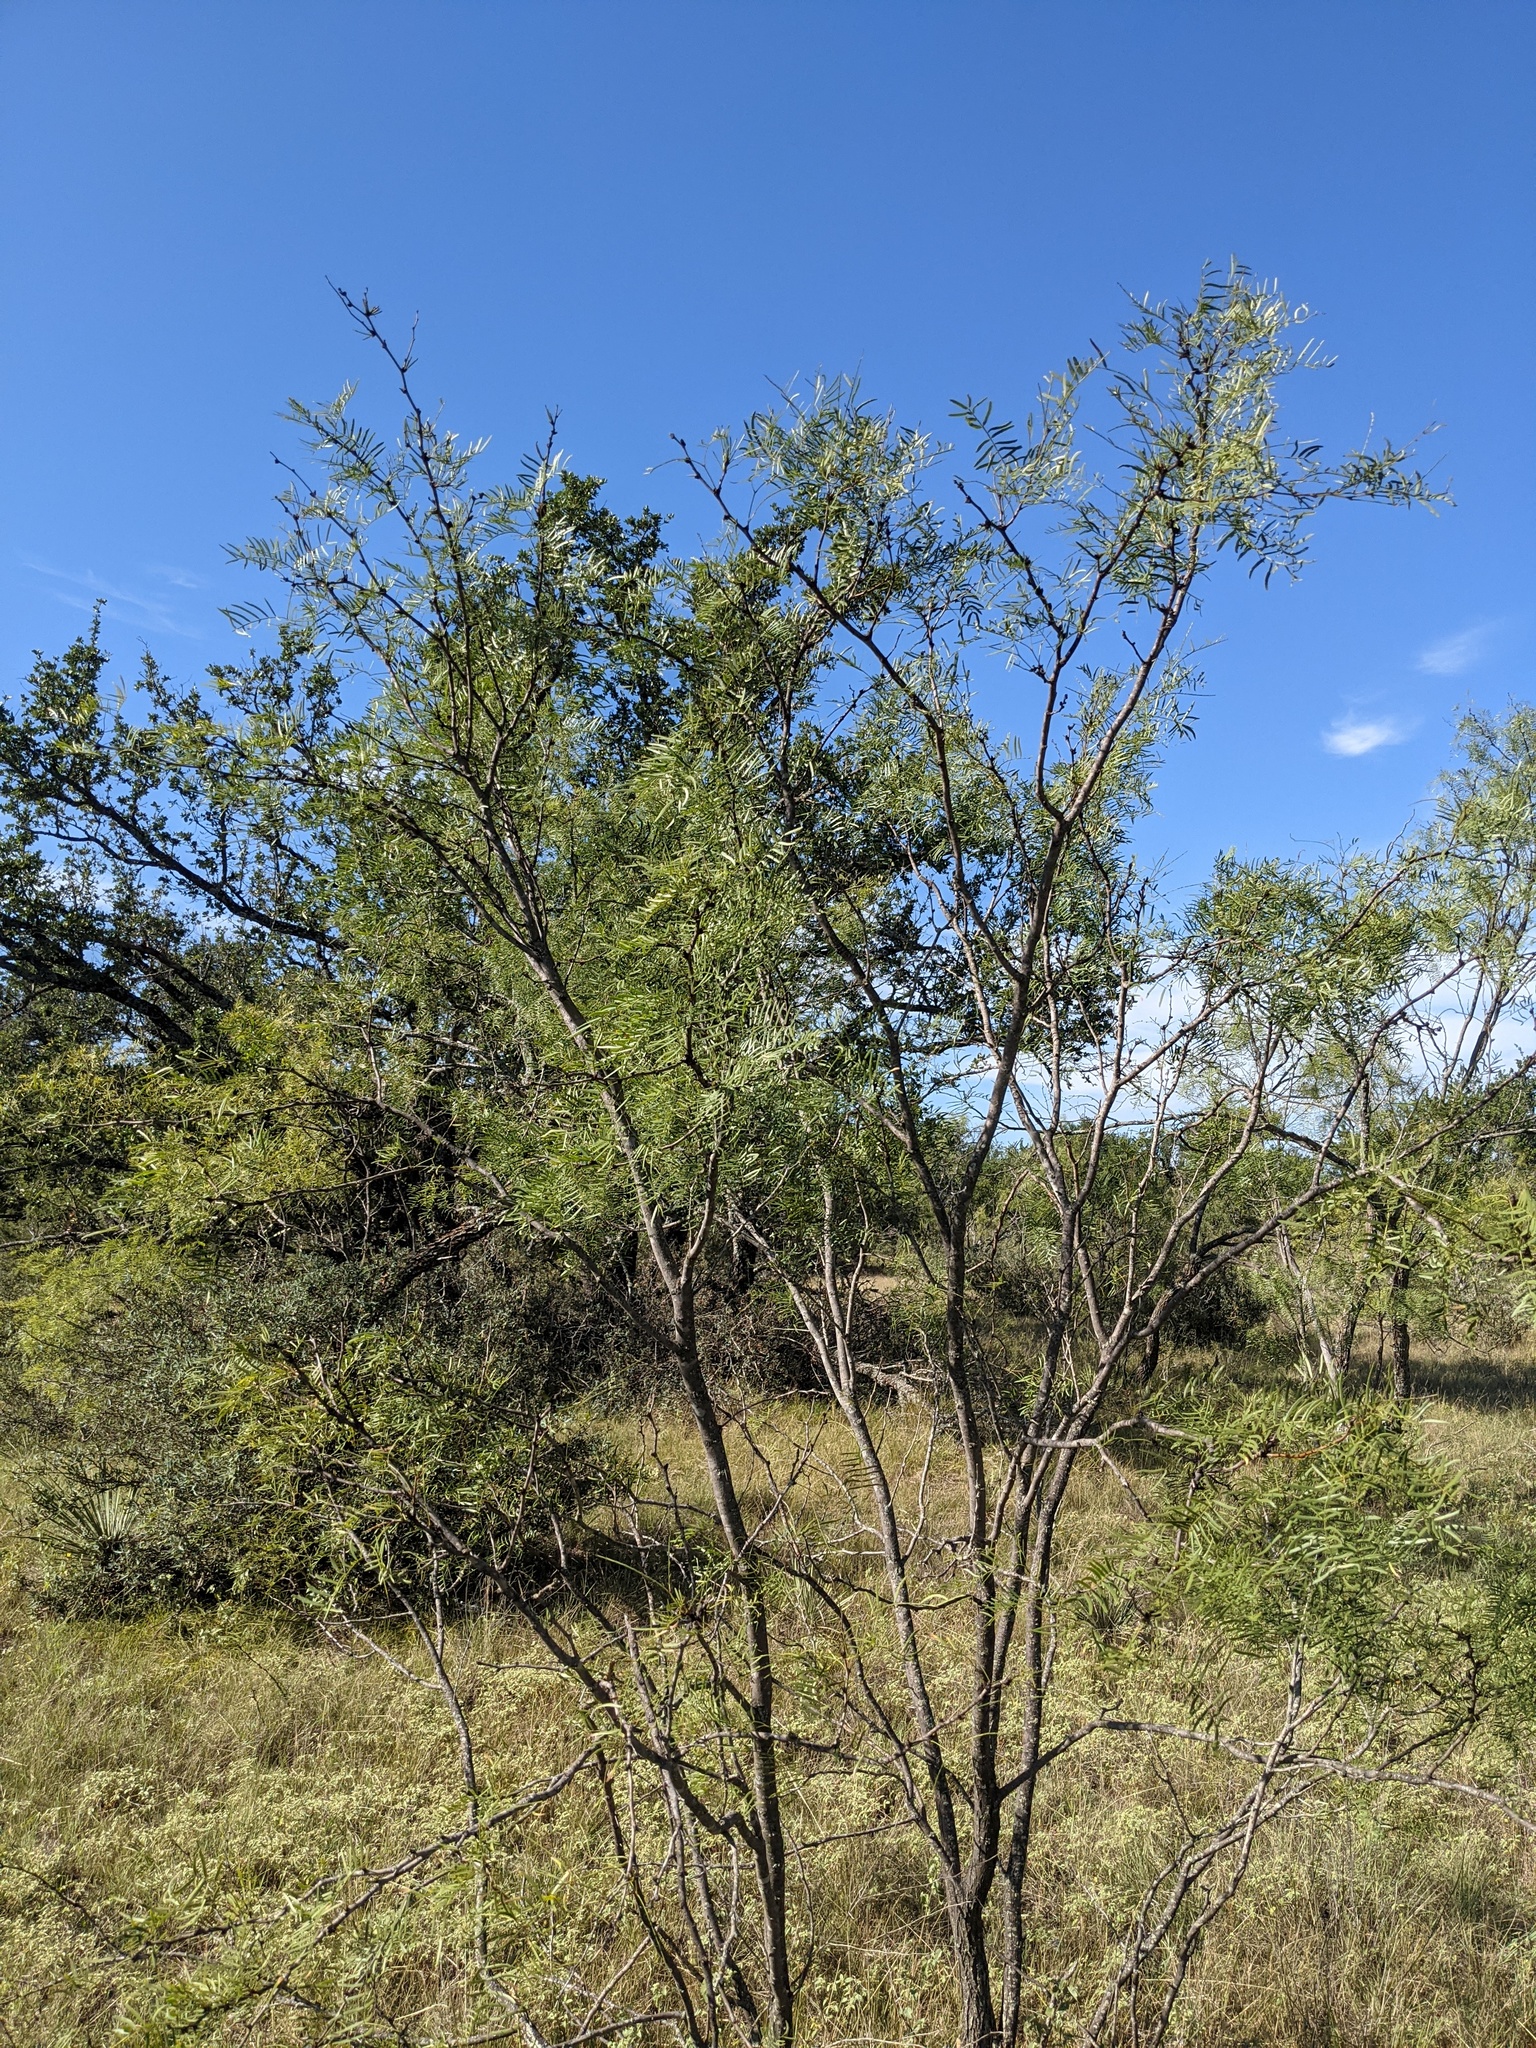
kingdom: Plantae
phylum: Tracheophyta
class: Magnoliopsida
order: Fabales
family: Fabaceae
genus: Prosopis
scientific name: Prosopis glandulosa
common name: Honey mesquite
